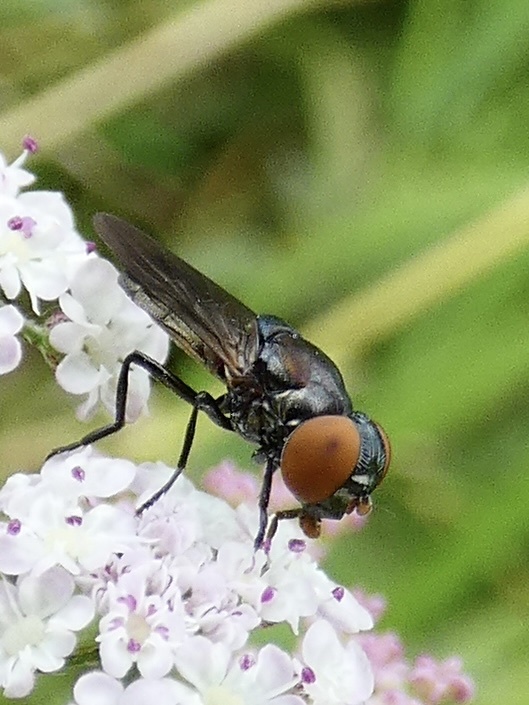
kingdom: Animalia
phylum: Arthropoda
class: Insecta
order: Diptera
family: Syrphidae
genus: Chrysogaster
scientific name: Chrysogaster solstitialis
